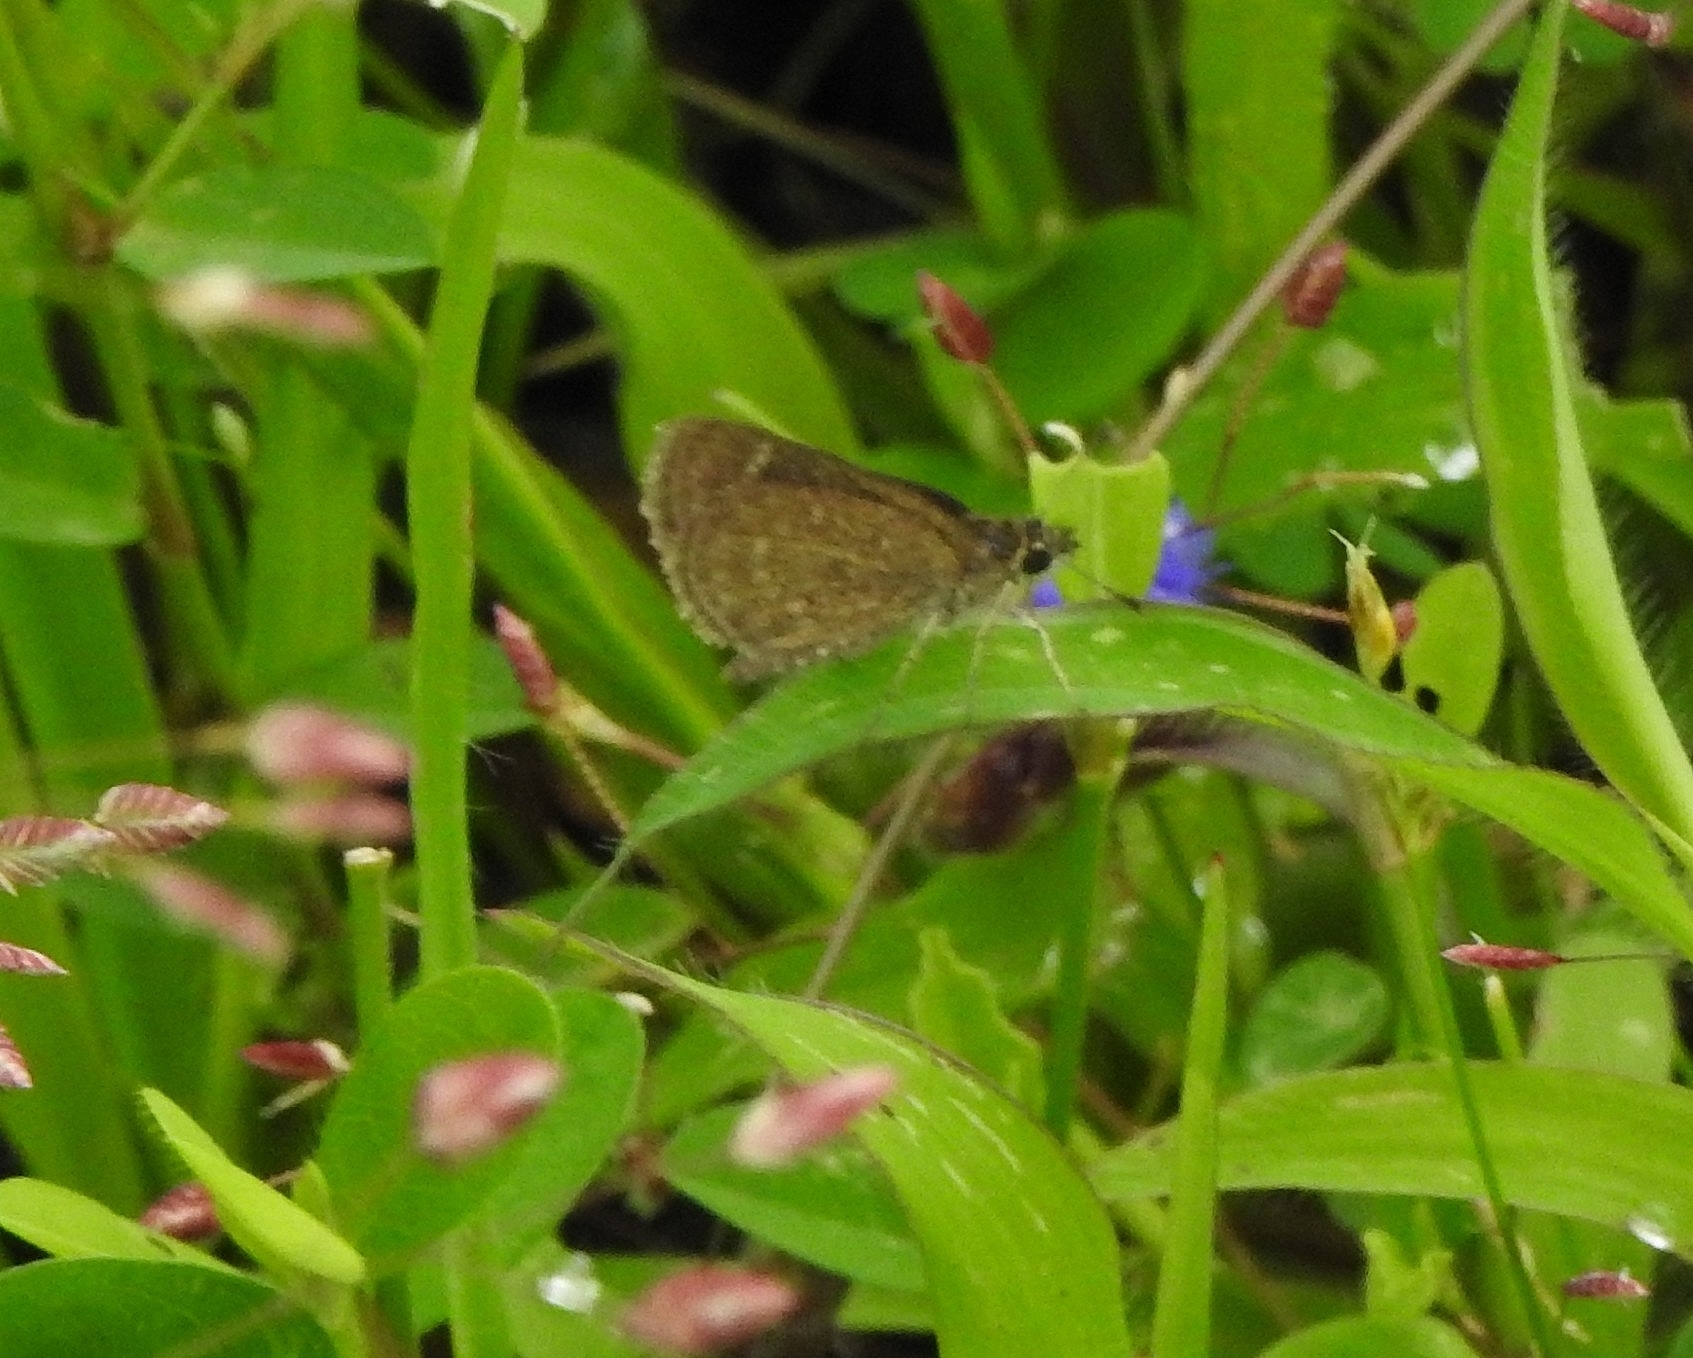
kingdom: Animalia
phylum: Arthropoda
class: Insecta
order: Lepidoptera
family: Hesperiidae
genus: Aeromachus
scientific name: Aeromachus pygmaeus
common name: Pygmy scrub hopper
